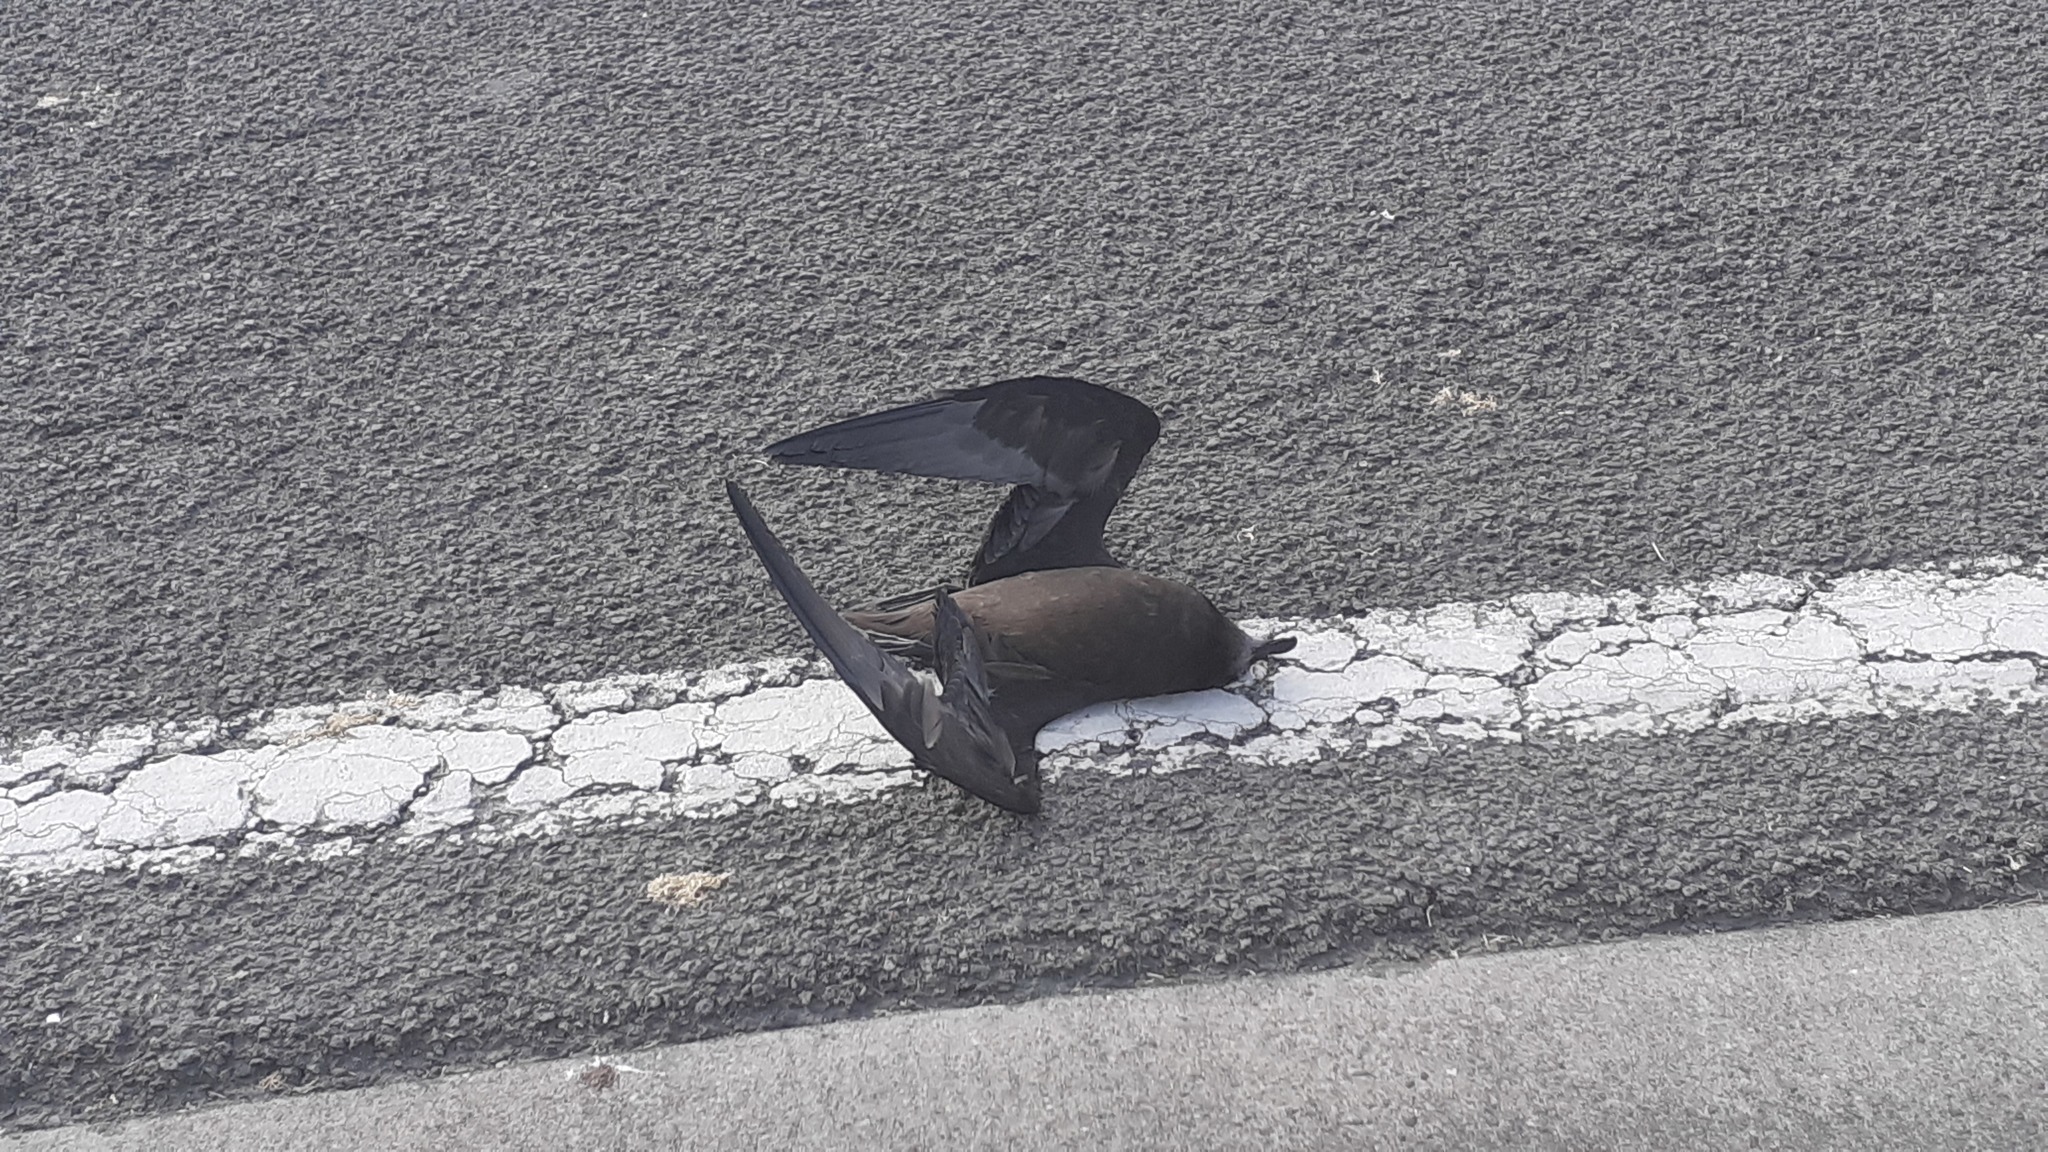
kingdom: Animalia
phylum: Chordata
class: Aves
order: Procellariiformes
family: Procellariidae
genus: Pterodroma
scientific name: Pterodroma macroptera
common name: Great-winged petrel
